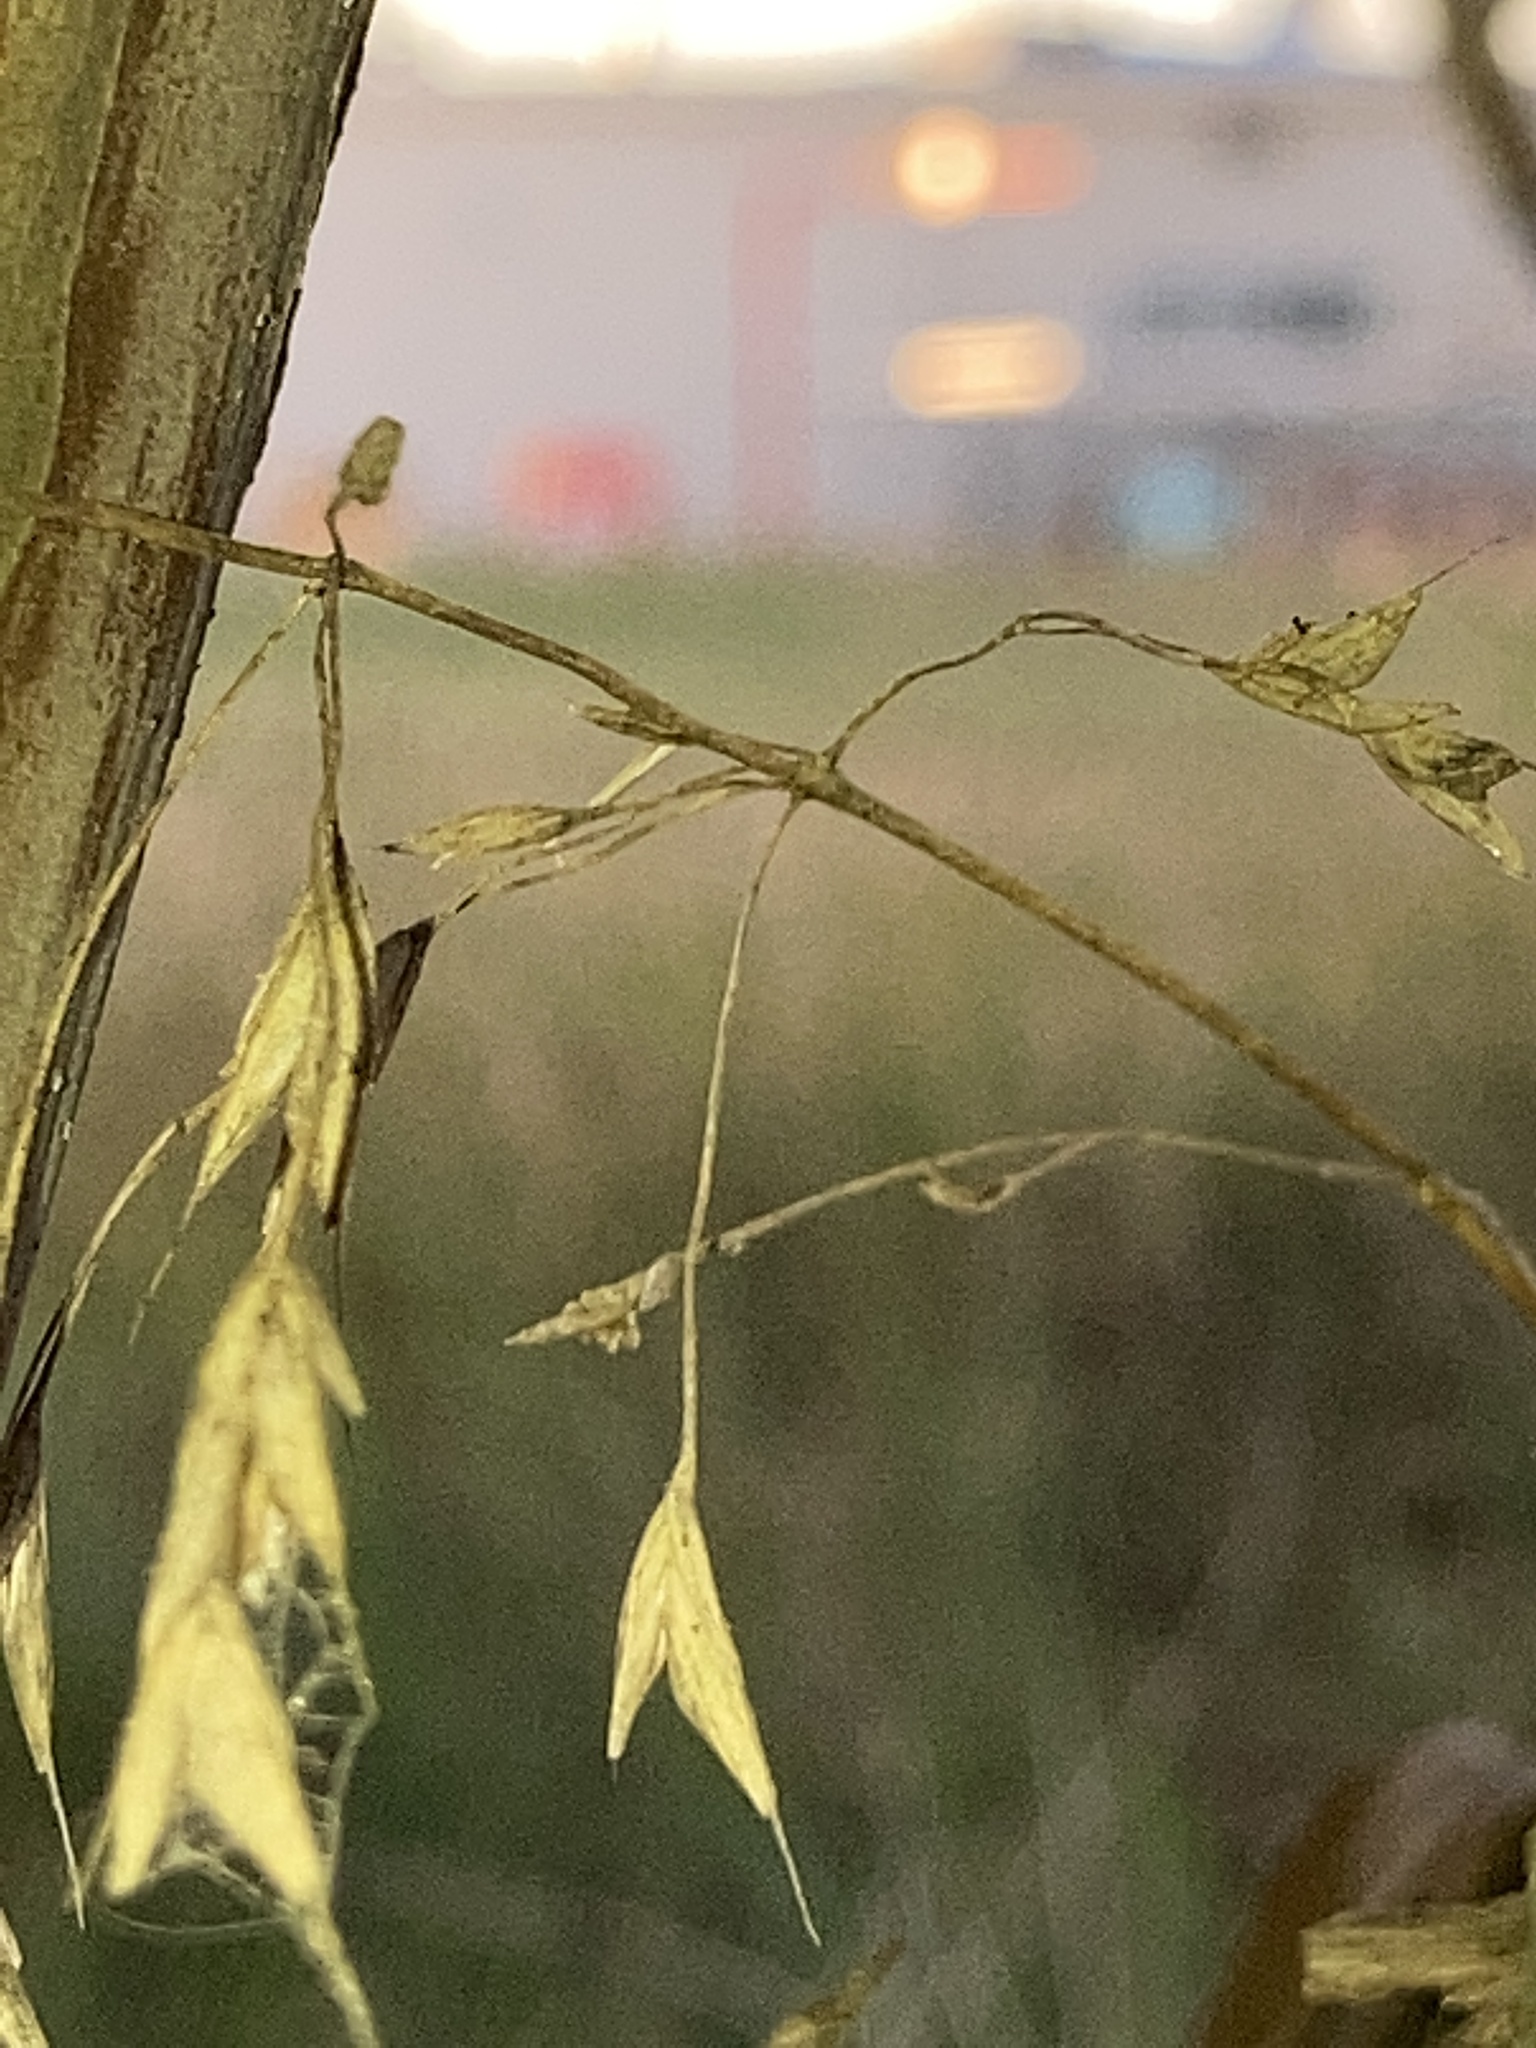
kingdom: Plantae
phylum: Tracheophyta
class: Liliopsida
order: Poales
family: Poaceae
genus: Danthonia
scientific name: Danthonia spicata
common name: Common wild oatgrass
